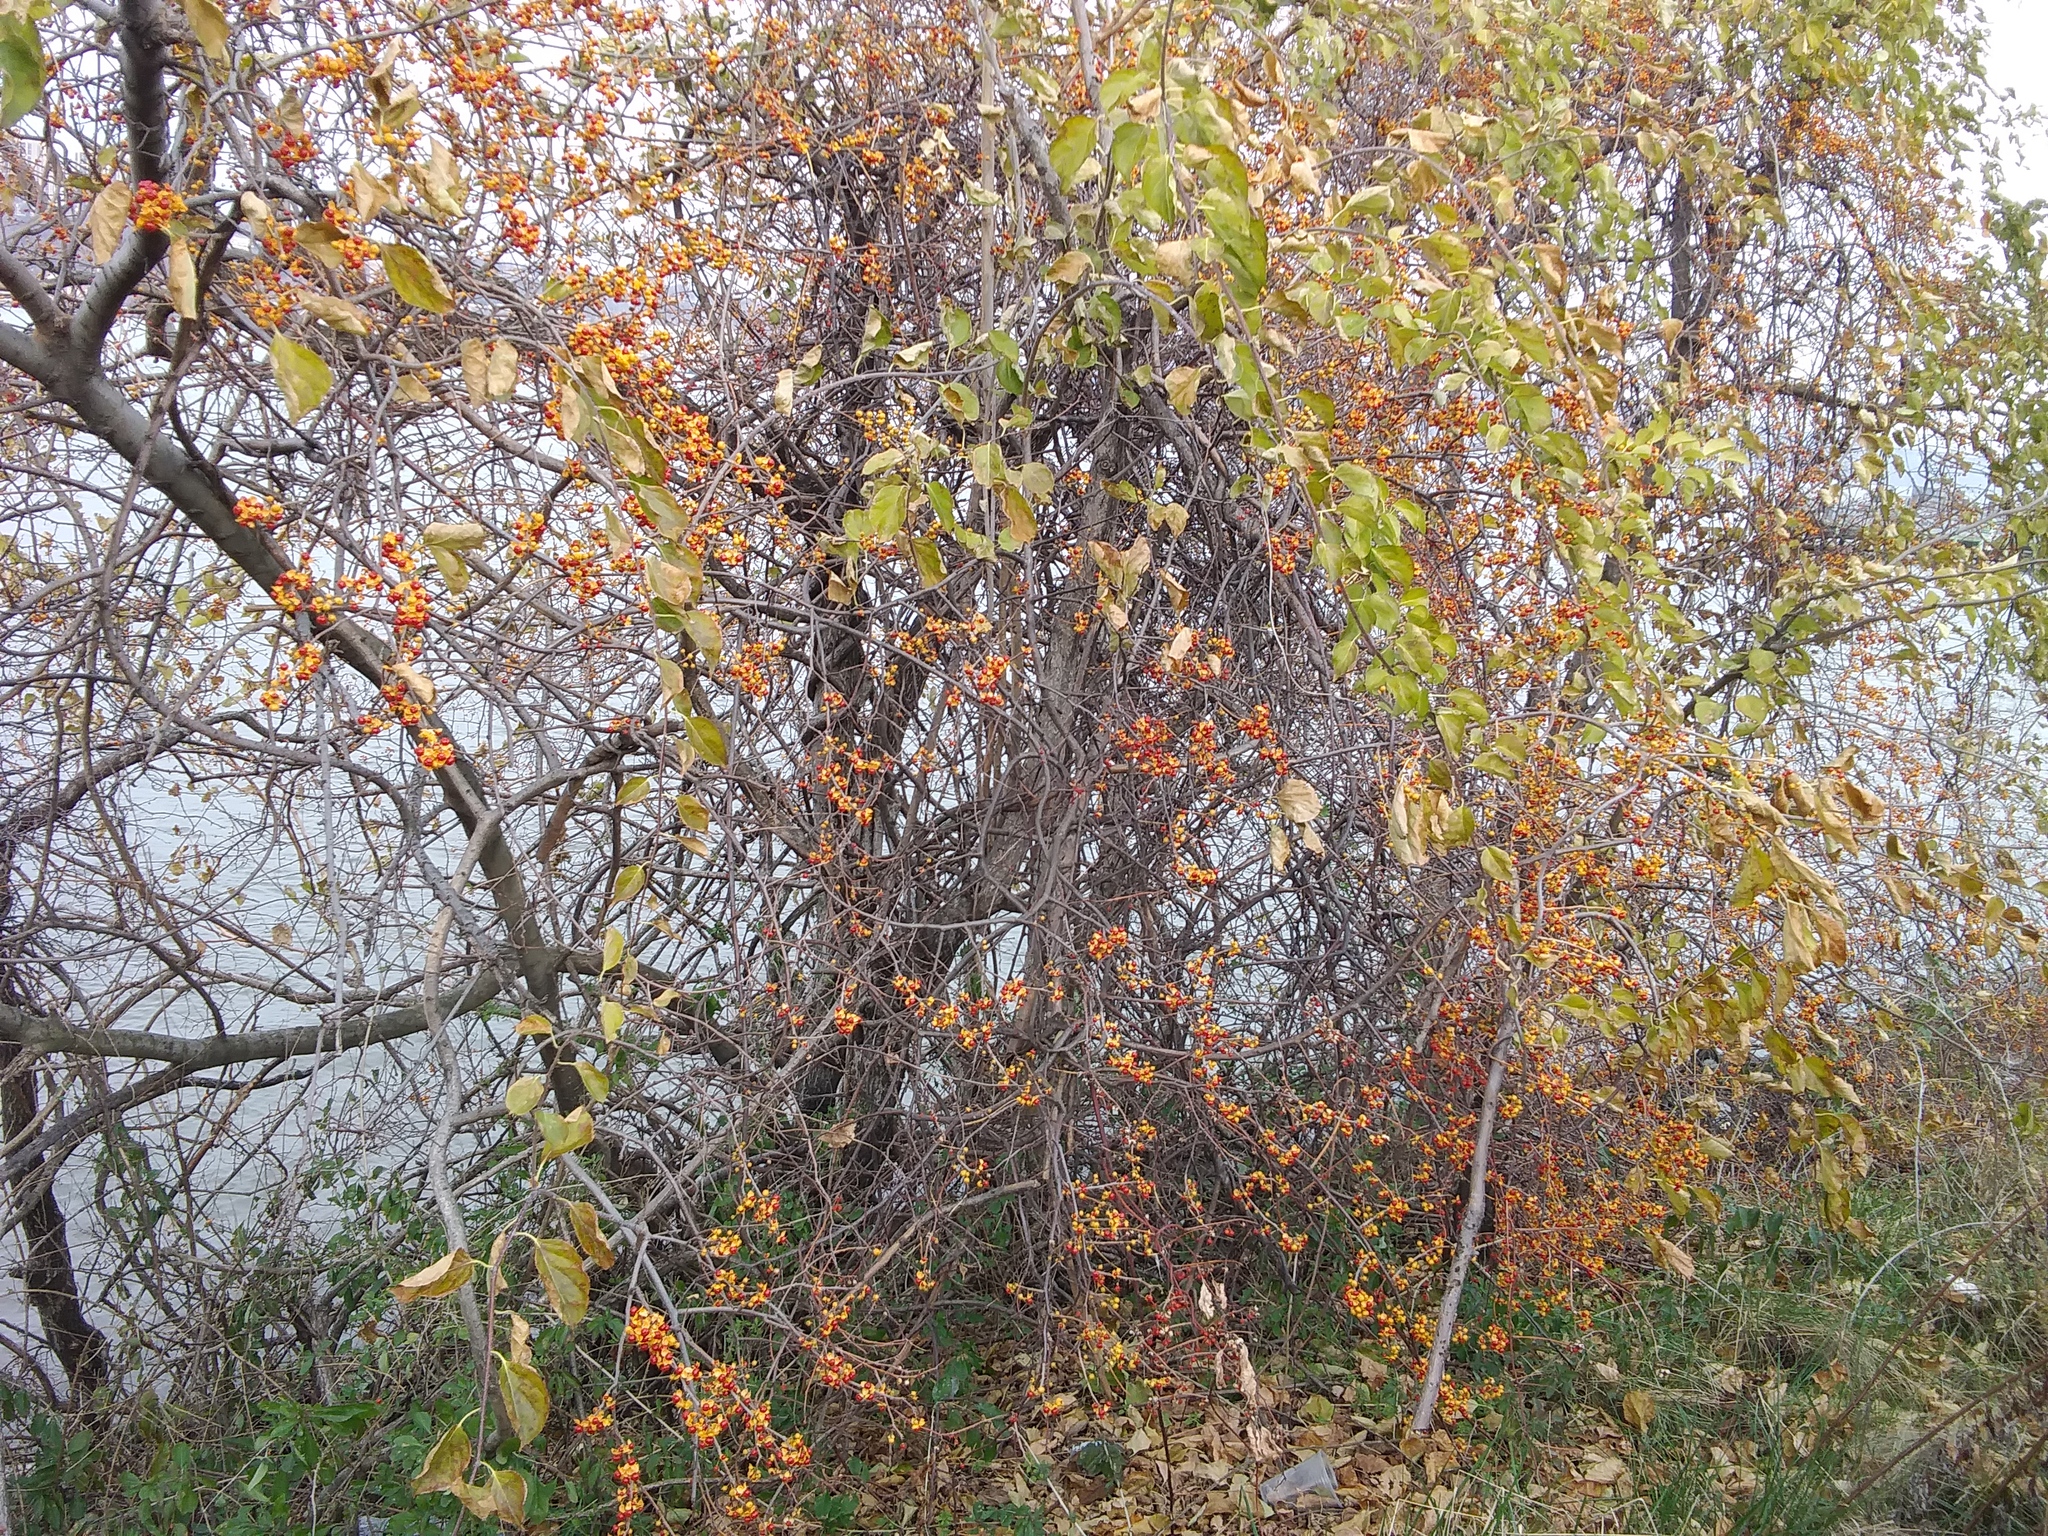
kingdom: Plantae
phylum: Tracheophyta
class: Magnoliopsida
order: Celastrales
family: Celastraceae
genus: Celastrus
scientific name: Celastrus orbiculatus
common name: Oriental bittersweet
